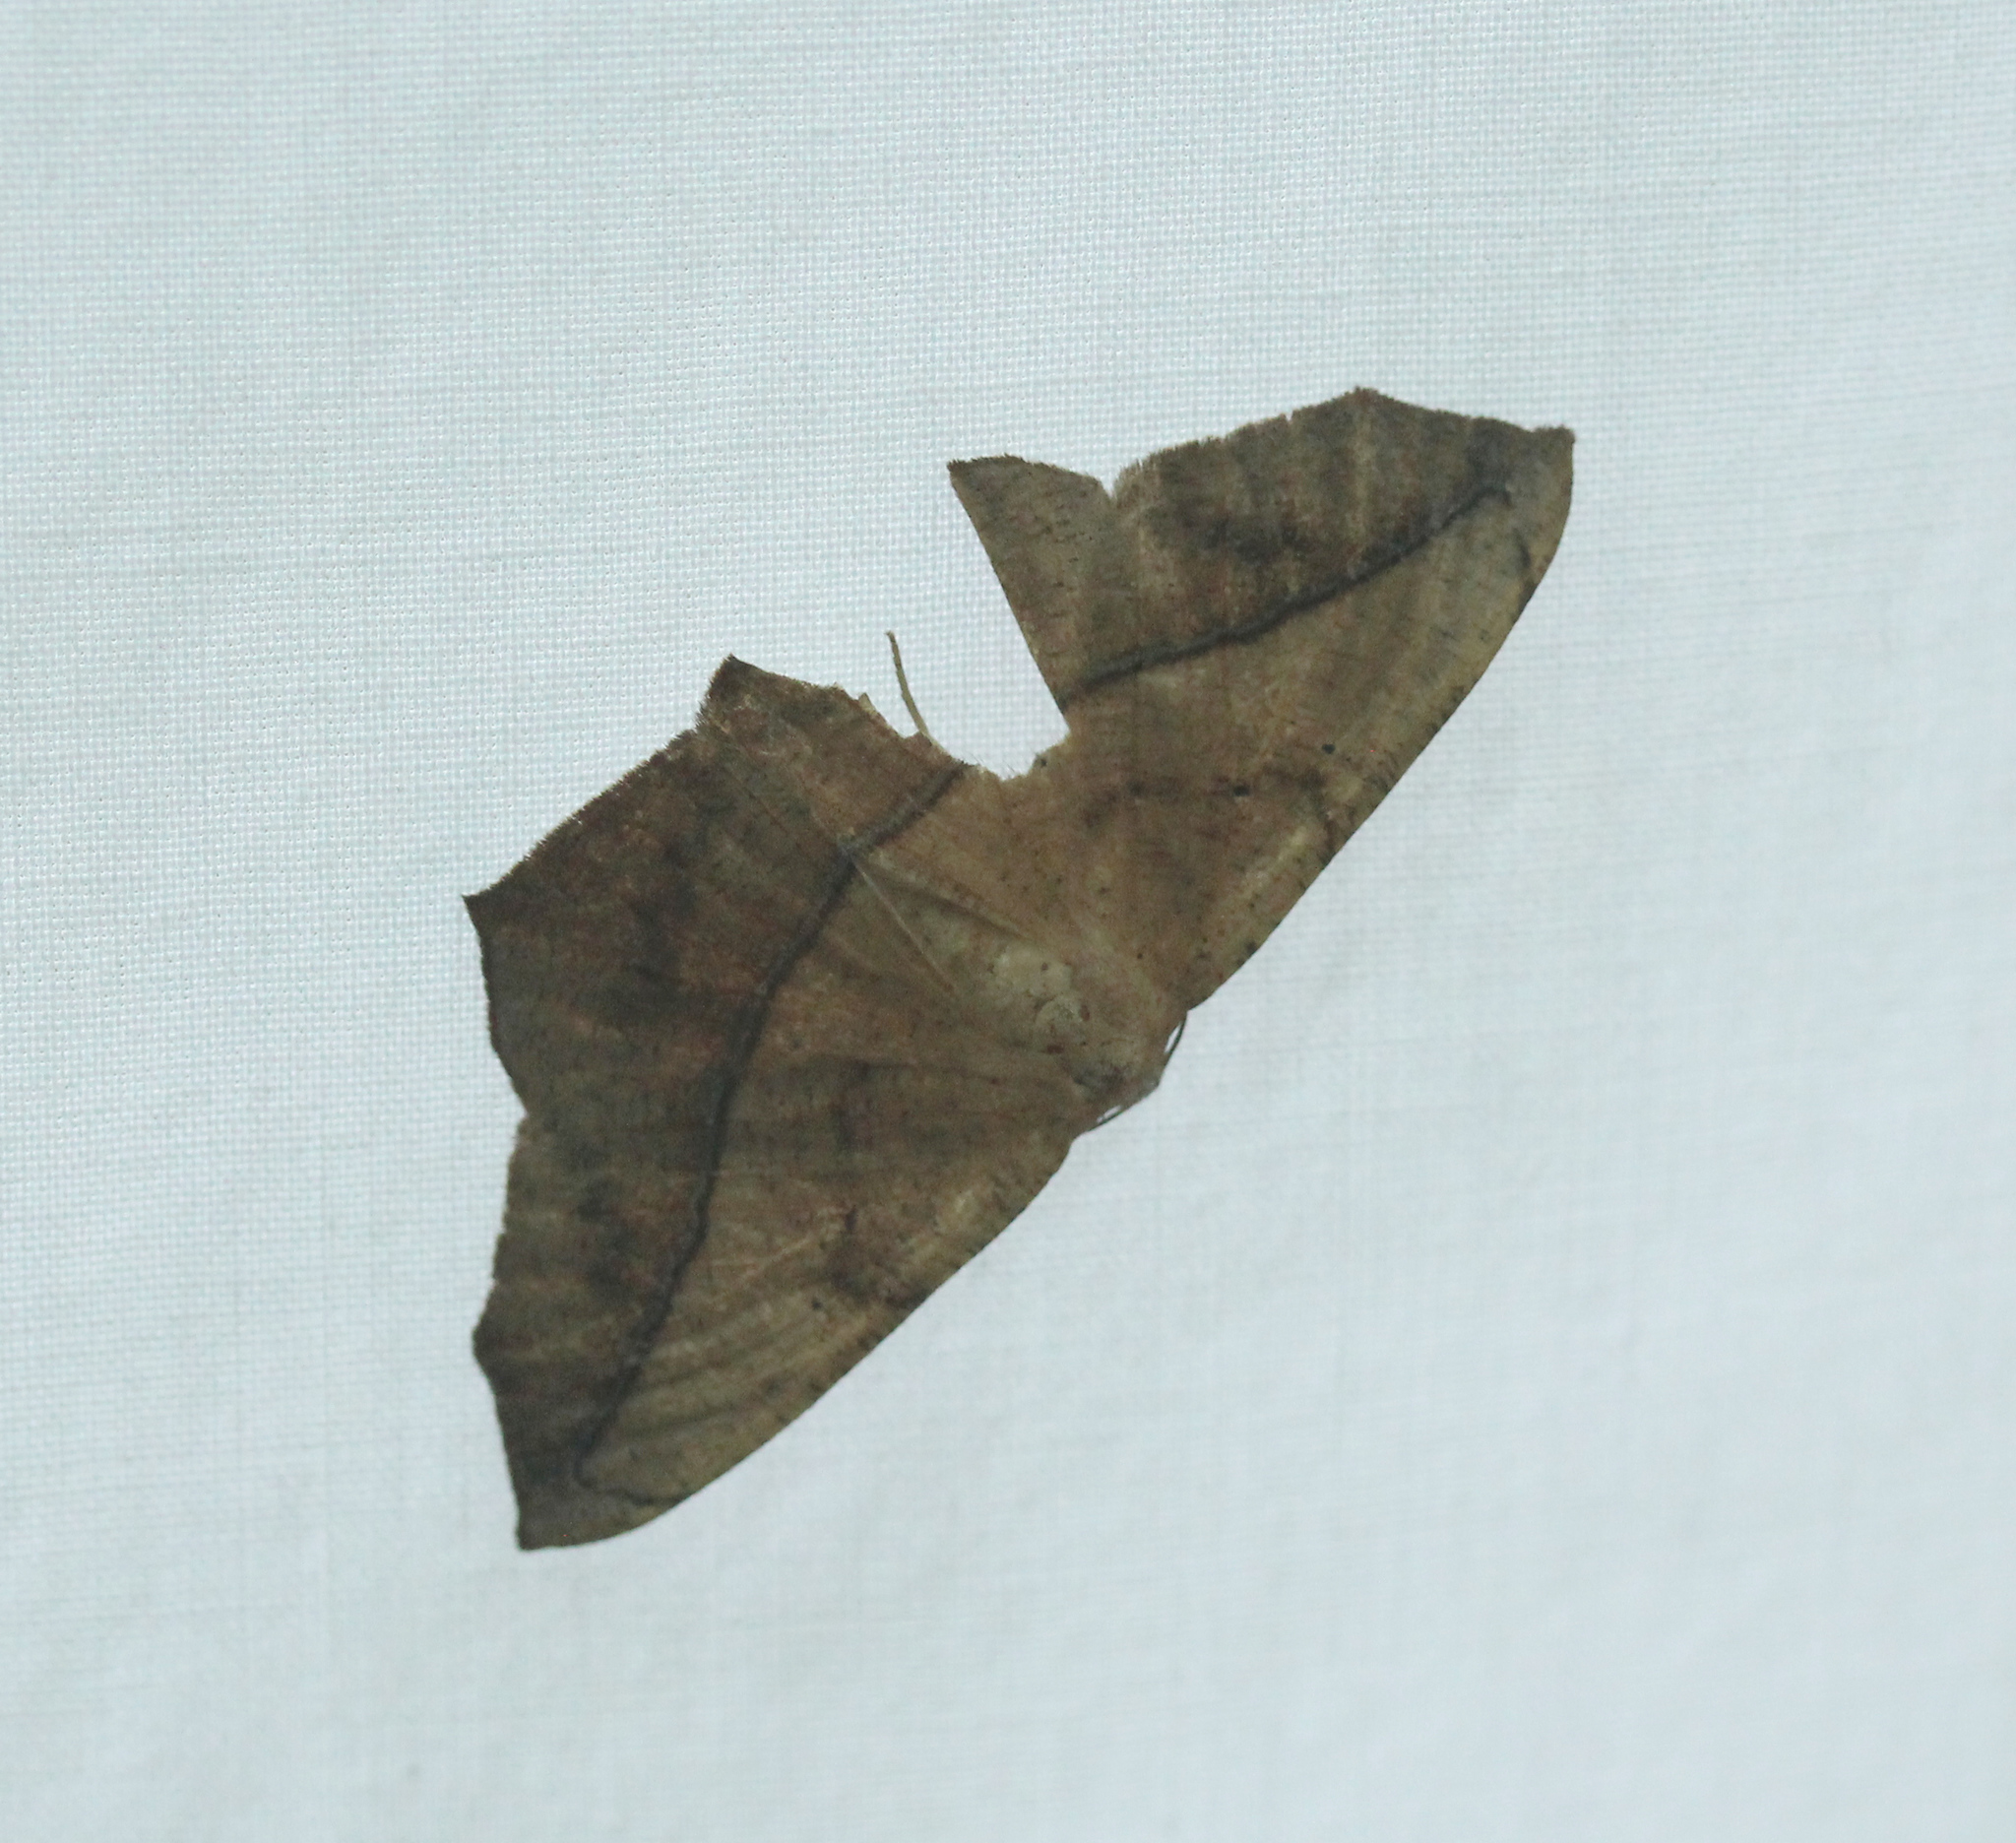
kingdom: Animalia
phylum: Arthropoda
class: Insecta
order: Lepidoptera
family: Geometridae
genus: Prochoerodes
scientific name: Prochoerodes lineola
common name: Large maple spanworm
